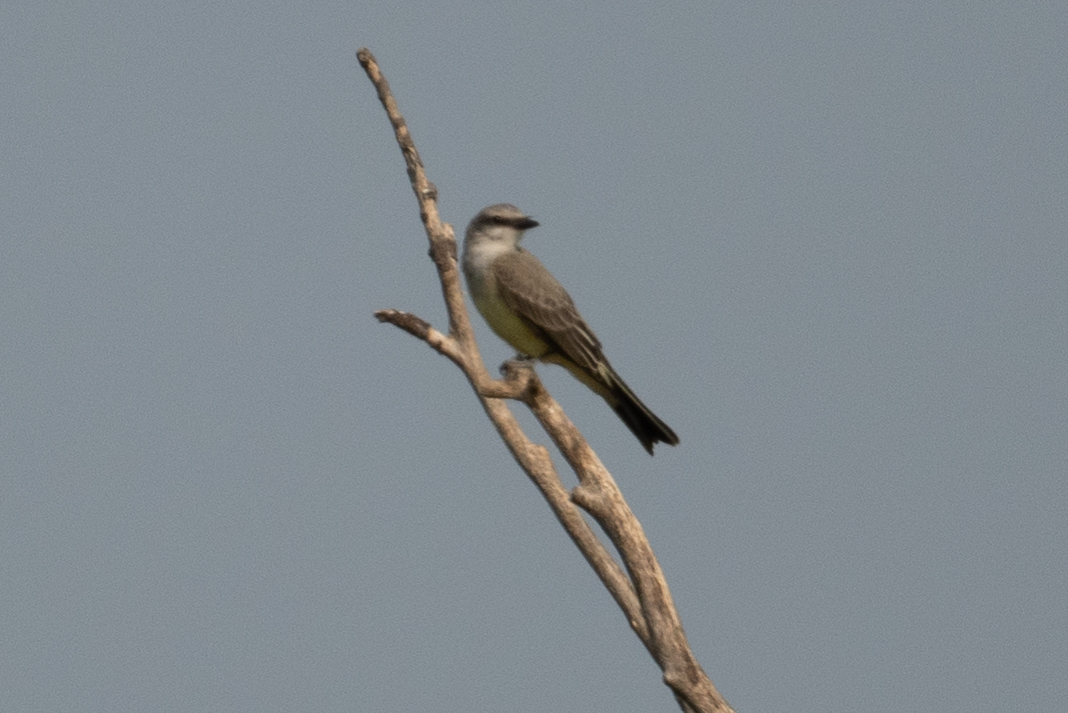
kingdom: Animalia
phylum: Chordata
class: Aves
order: Passeriformes
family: Tyrannidae
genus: Tyrannus
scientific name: Tyrannus verticalis
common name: Western kingbird
